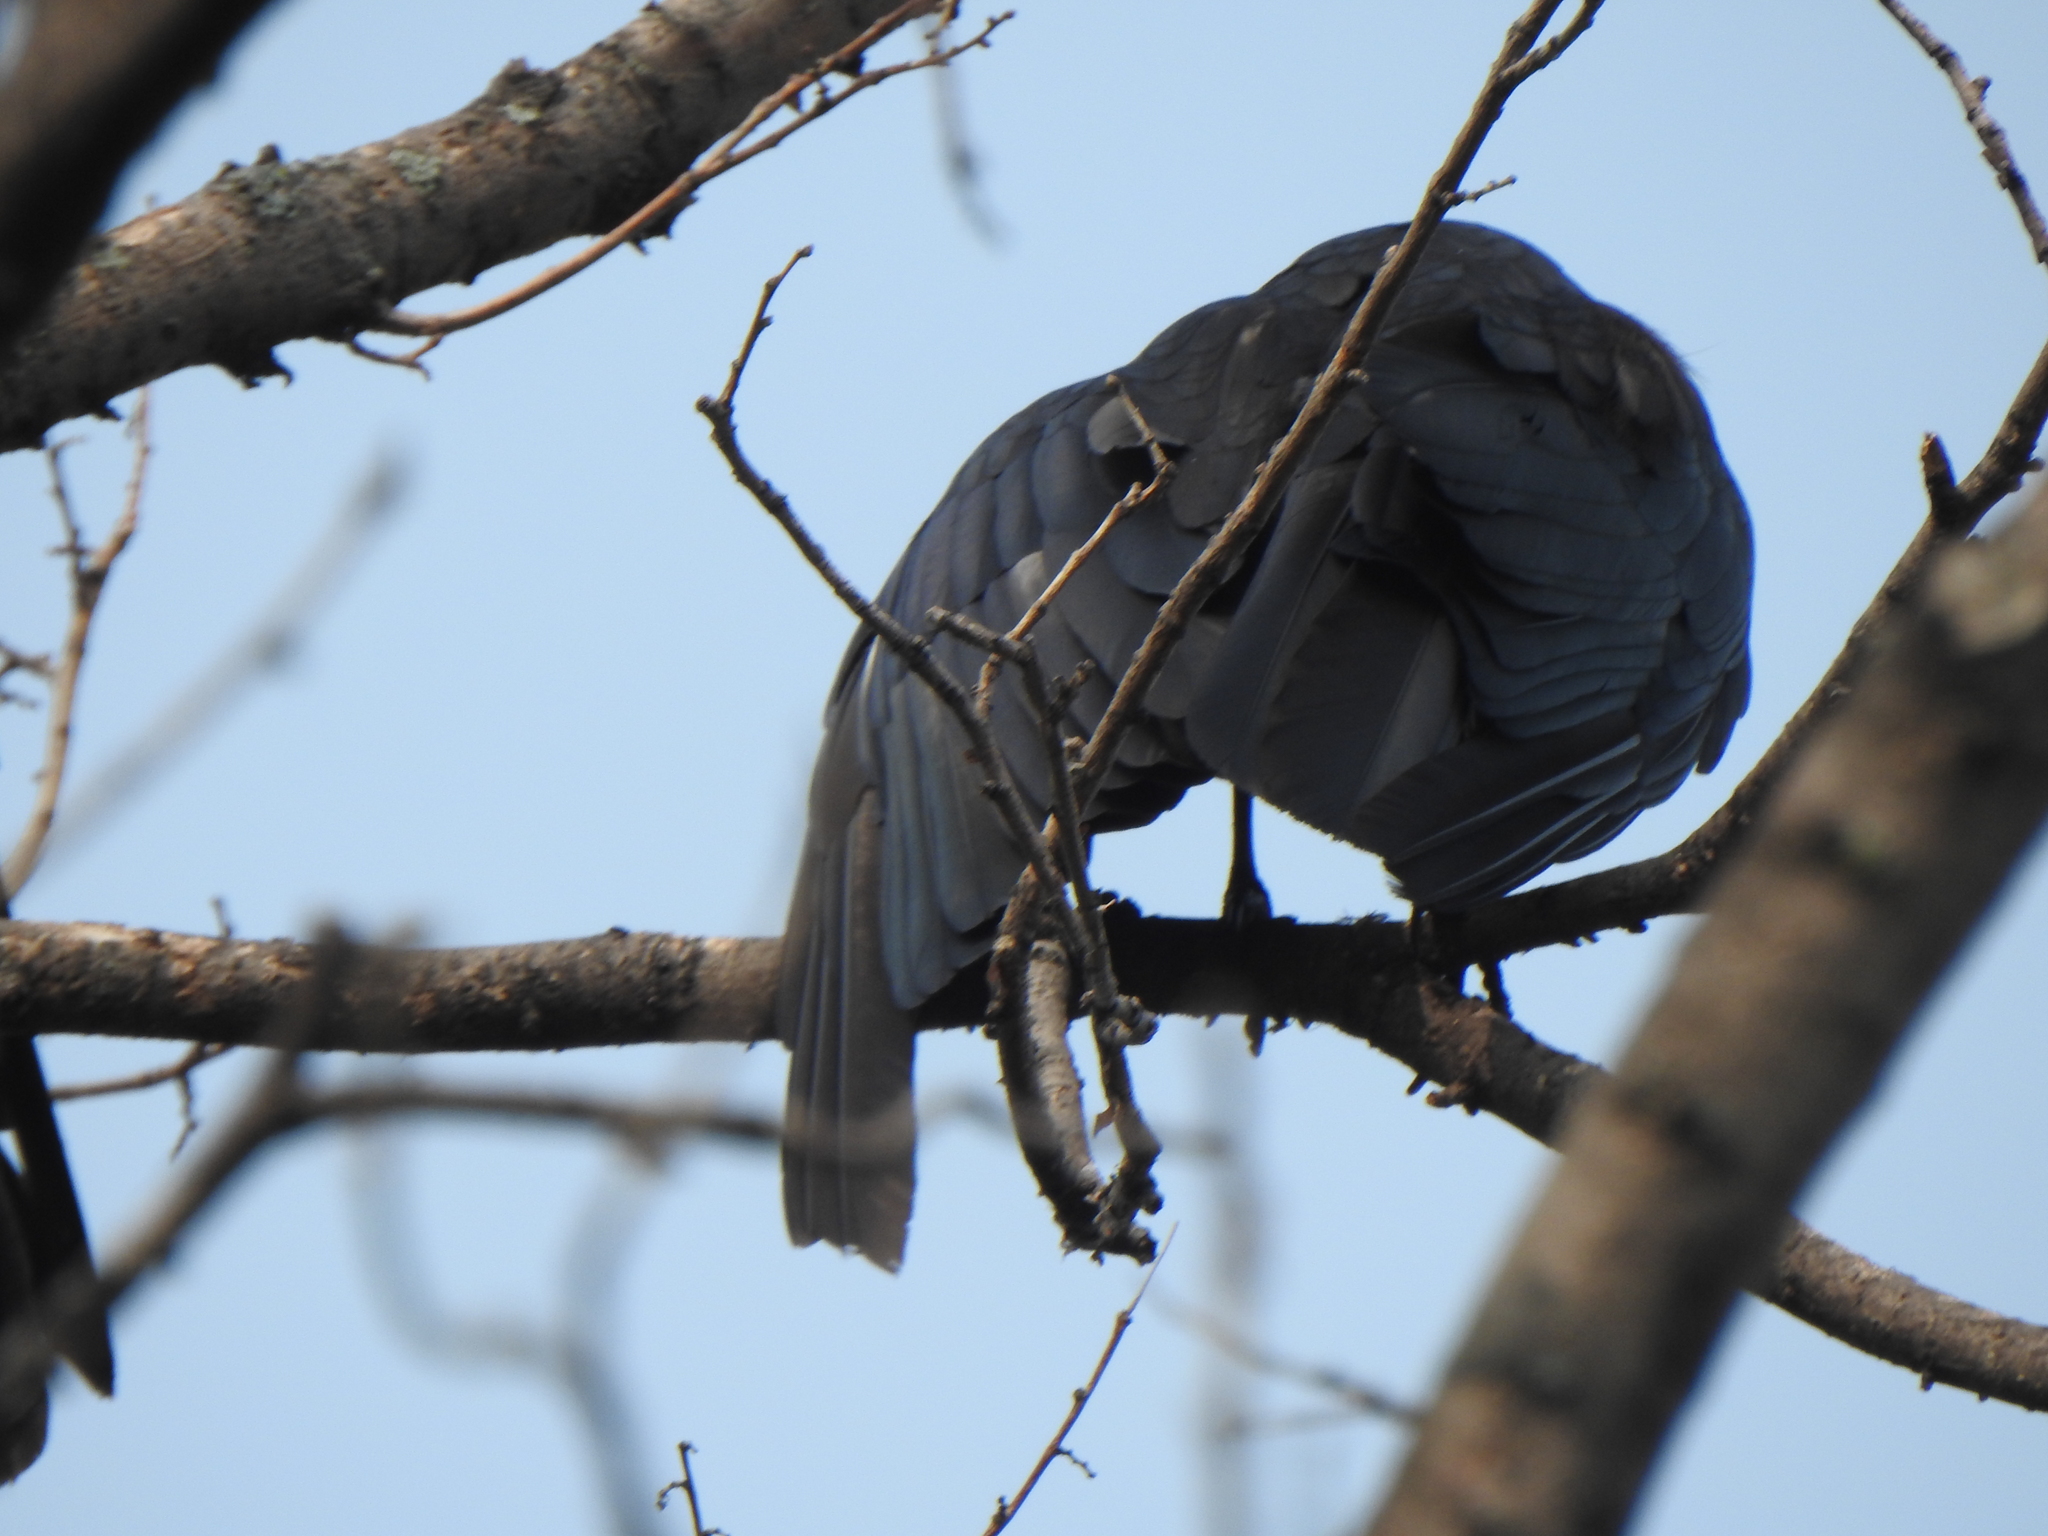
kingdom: Animalia
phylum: Chordata
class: Aves
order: Passeriformes
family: Corvidae
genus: Corvus
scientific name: Corvus brachyrhynchos
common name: American crow
